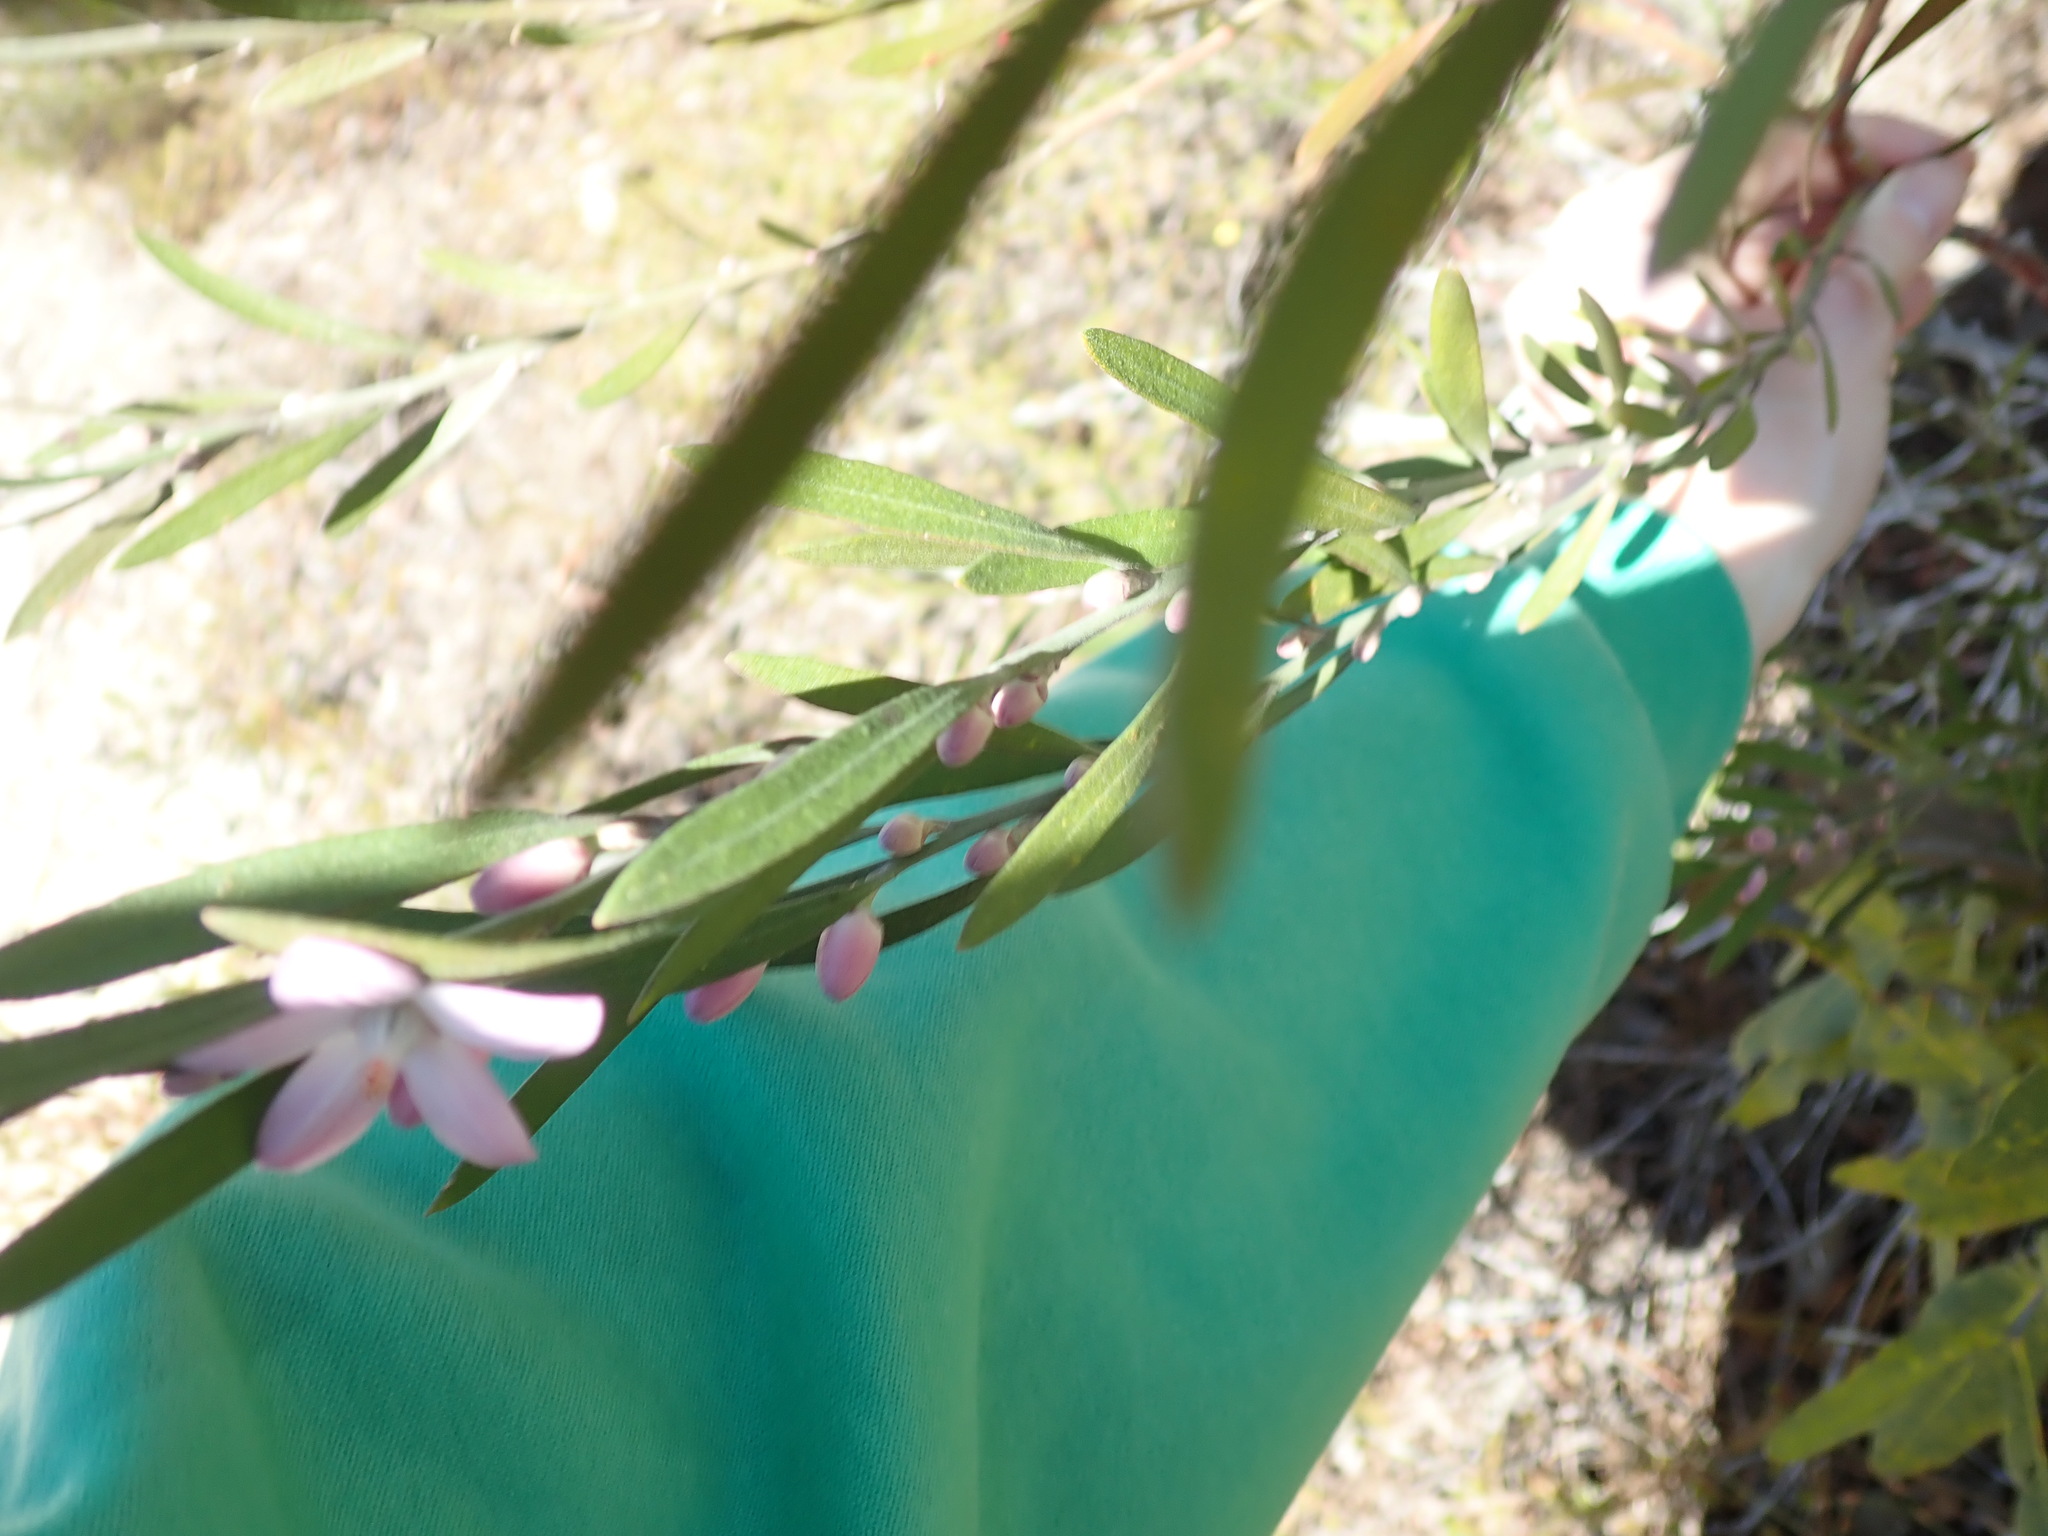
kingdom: Plantae
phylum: Tracheophyta
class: Magnoliopsida
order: Sapindales
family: Rutaceae
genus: Eriostemon
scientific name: Eriostemon australasius
